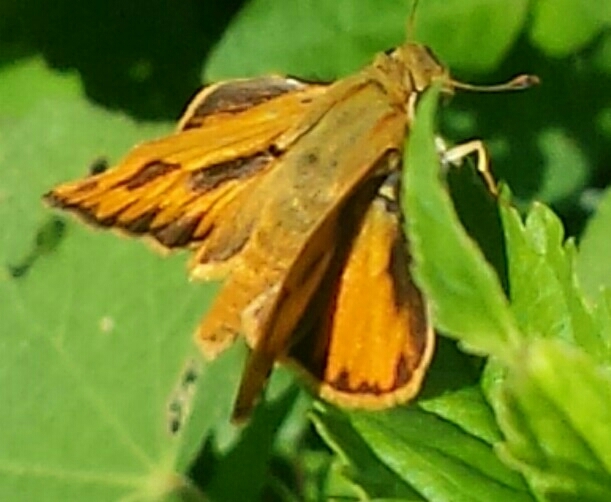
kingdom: Animalia
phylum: Arthropoda
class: Insecta
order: Lepidoptera
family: Hesperiidae
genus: Hylephila
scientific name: Hylephila phyleus
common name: Fiery skipper
